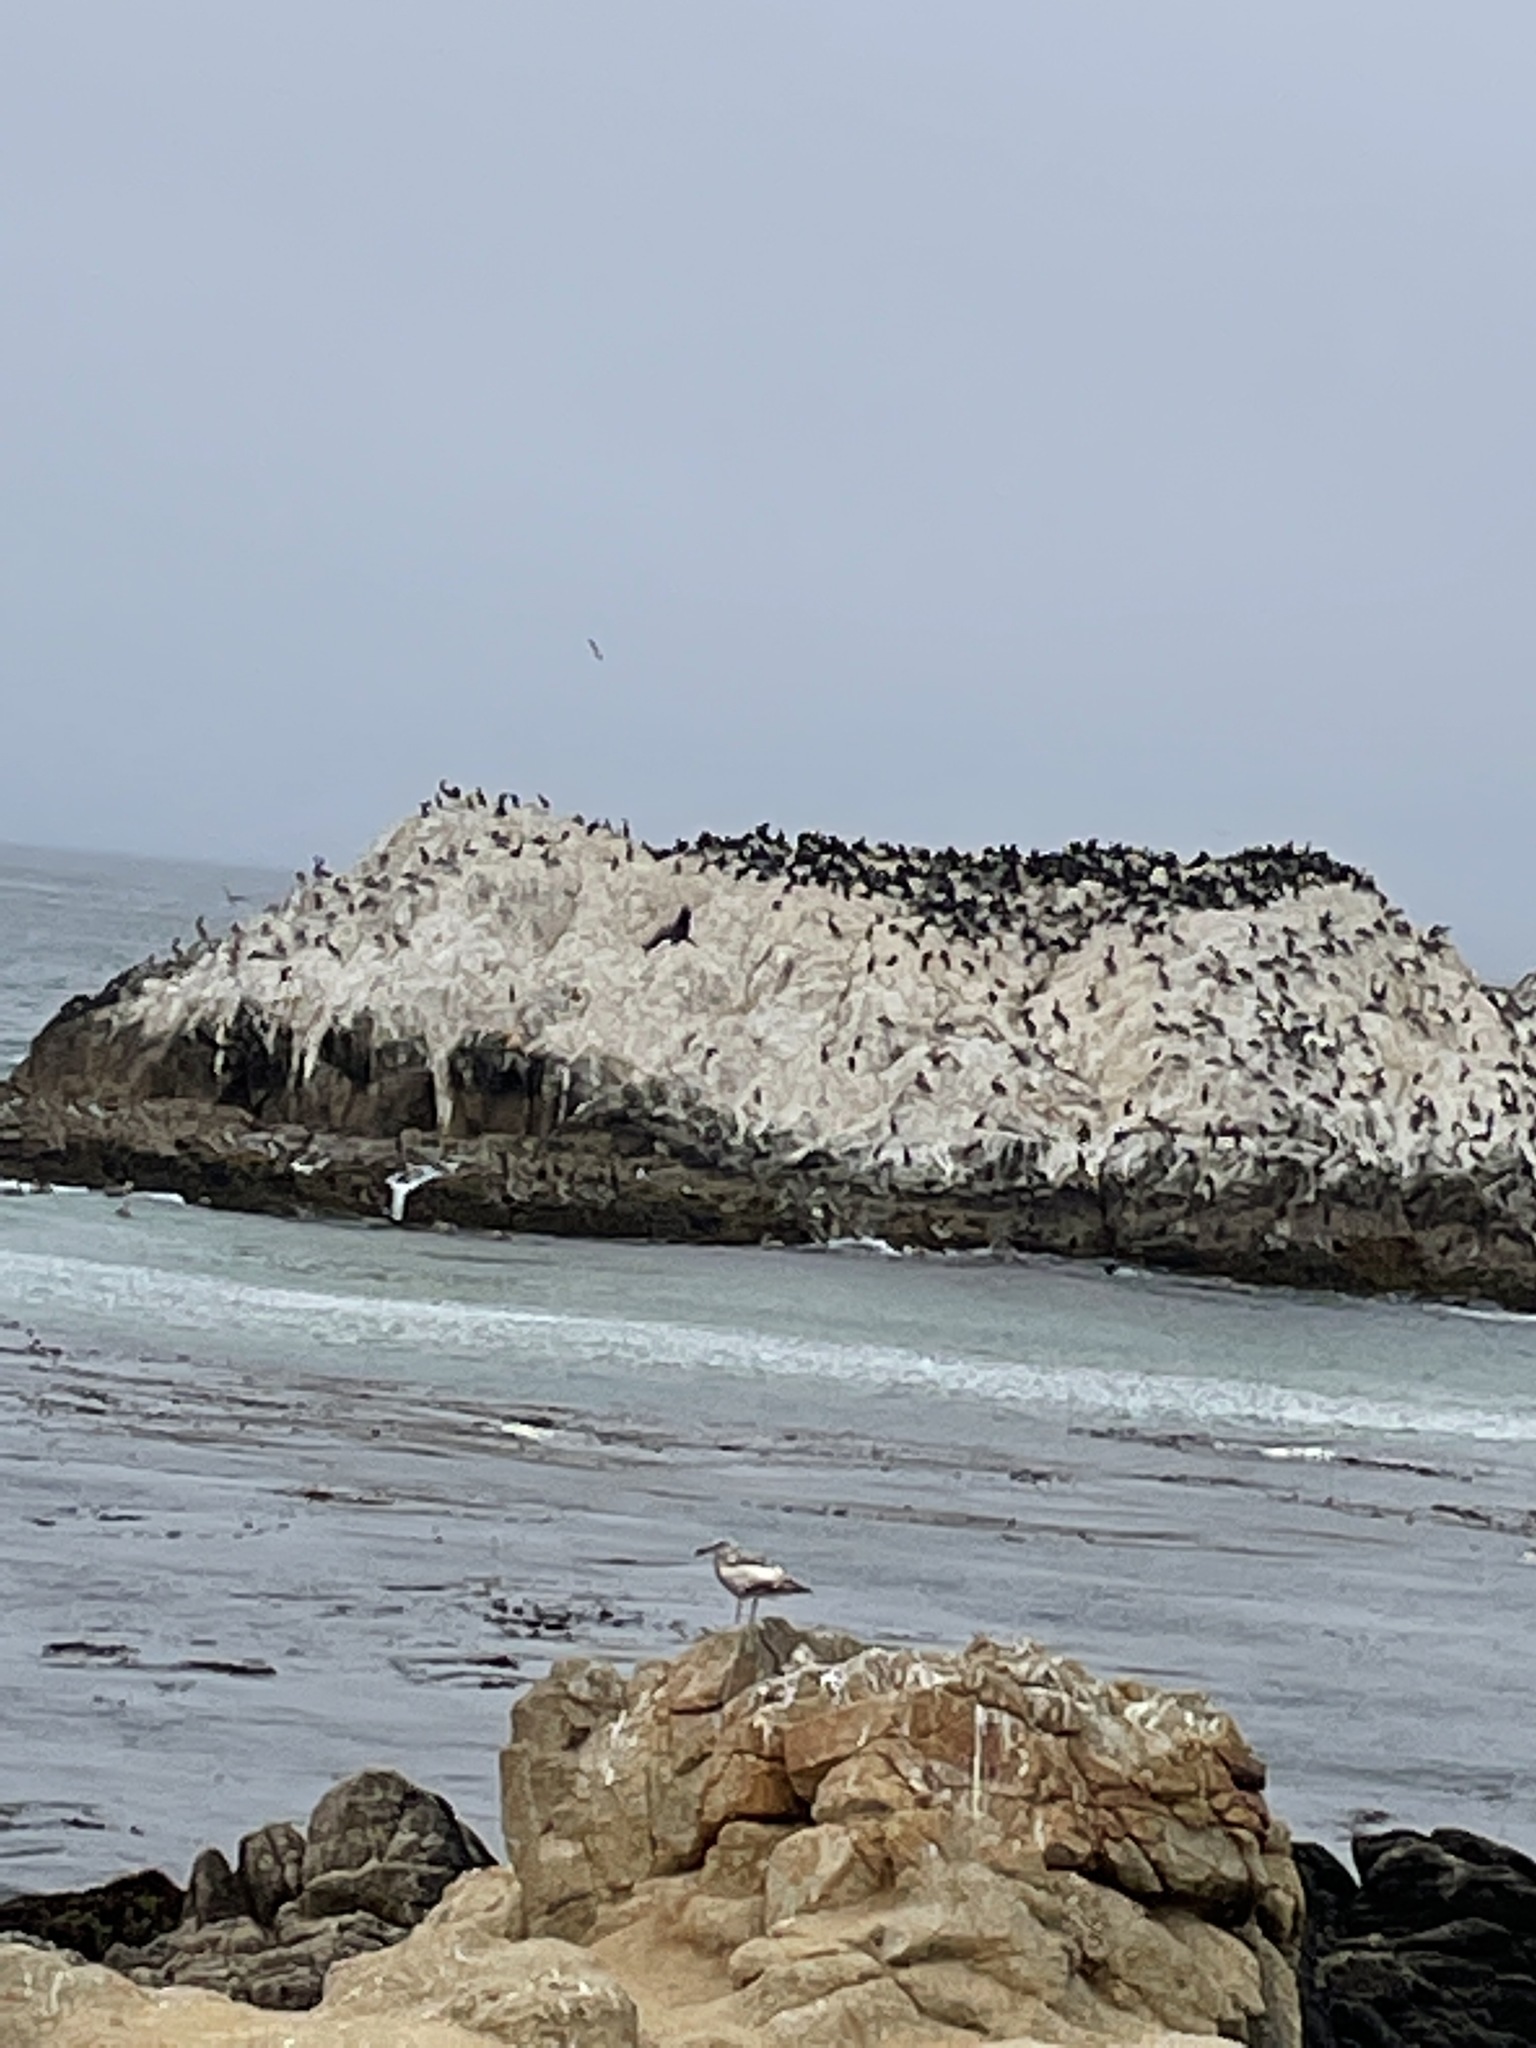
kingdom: Animalia
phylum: Chordata
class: Mammalia
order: Carnivora
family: Otariidae
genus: Zalophus
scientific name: Zalophus californianus
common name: California sea lion
